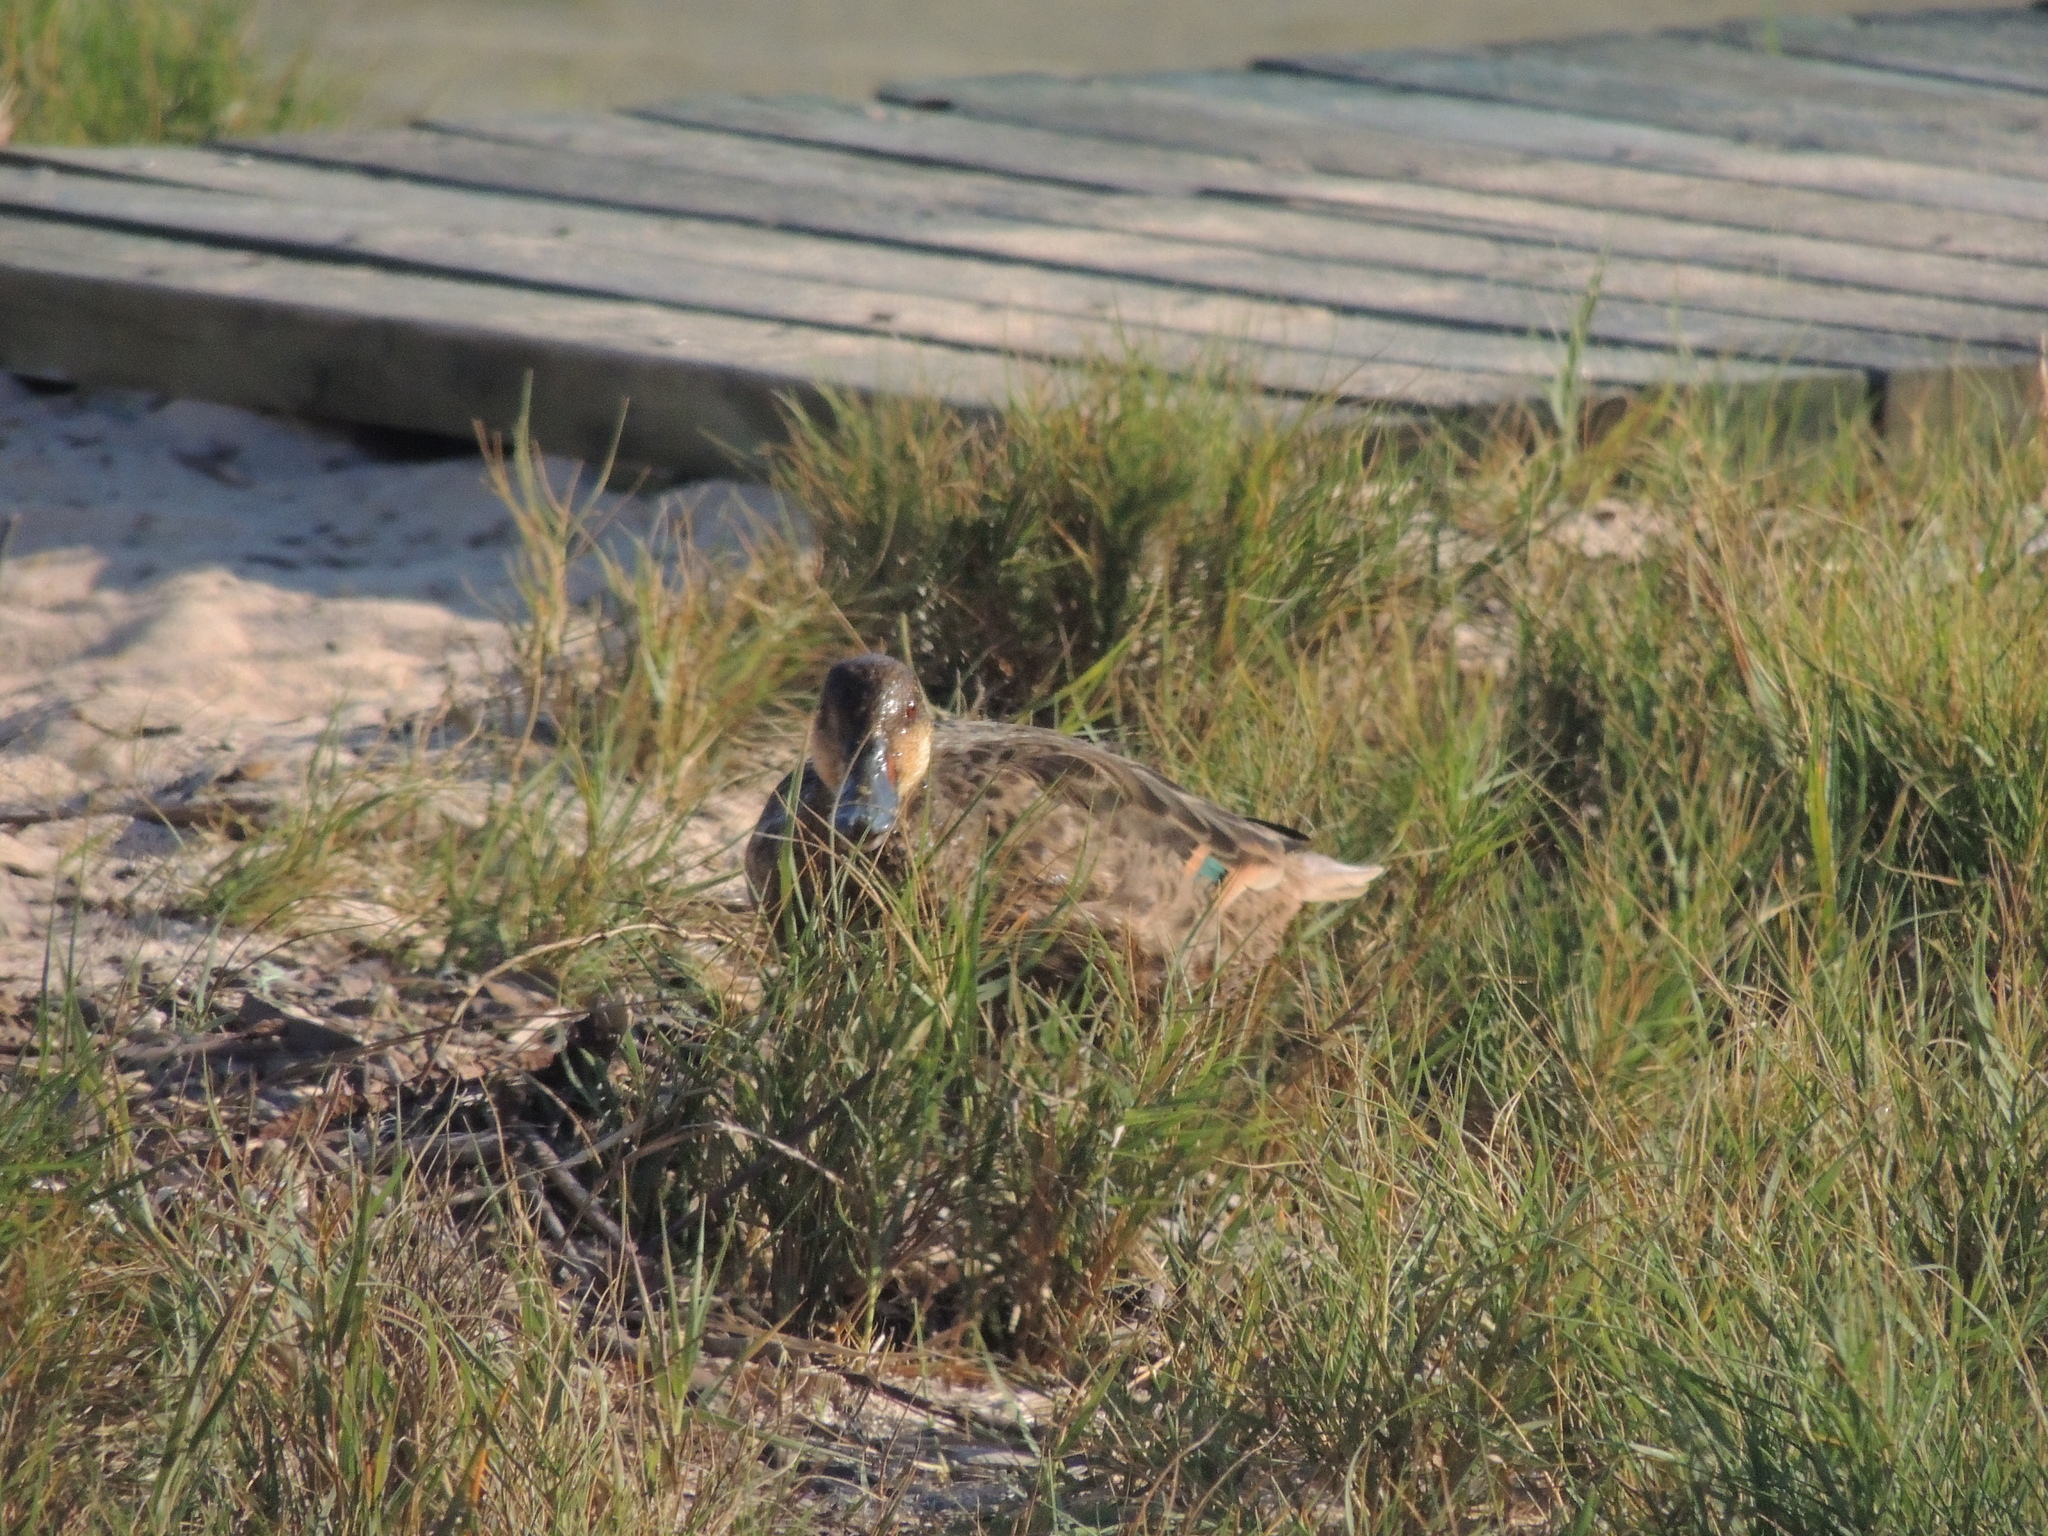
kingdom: Animalia
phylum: Chordata
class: Aves
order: Anseriformes
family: Anatidae
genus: Anas
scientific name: Anas bahamensis
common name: White-cheeked pintail
